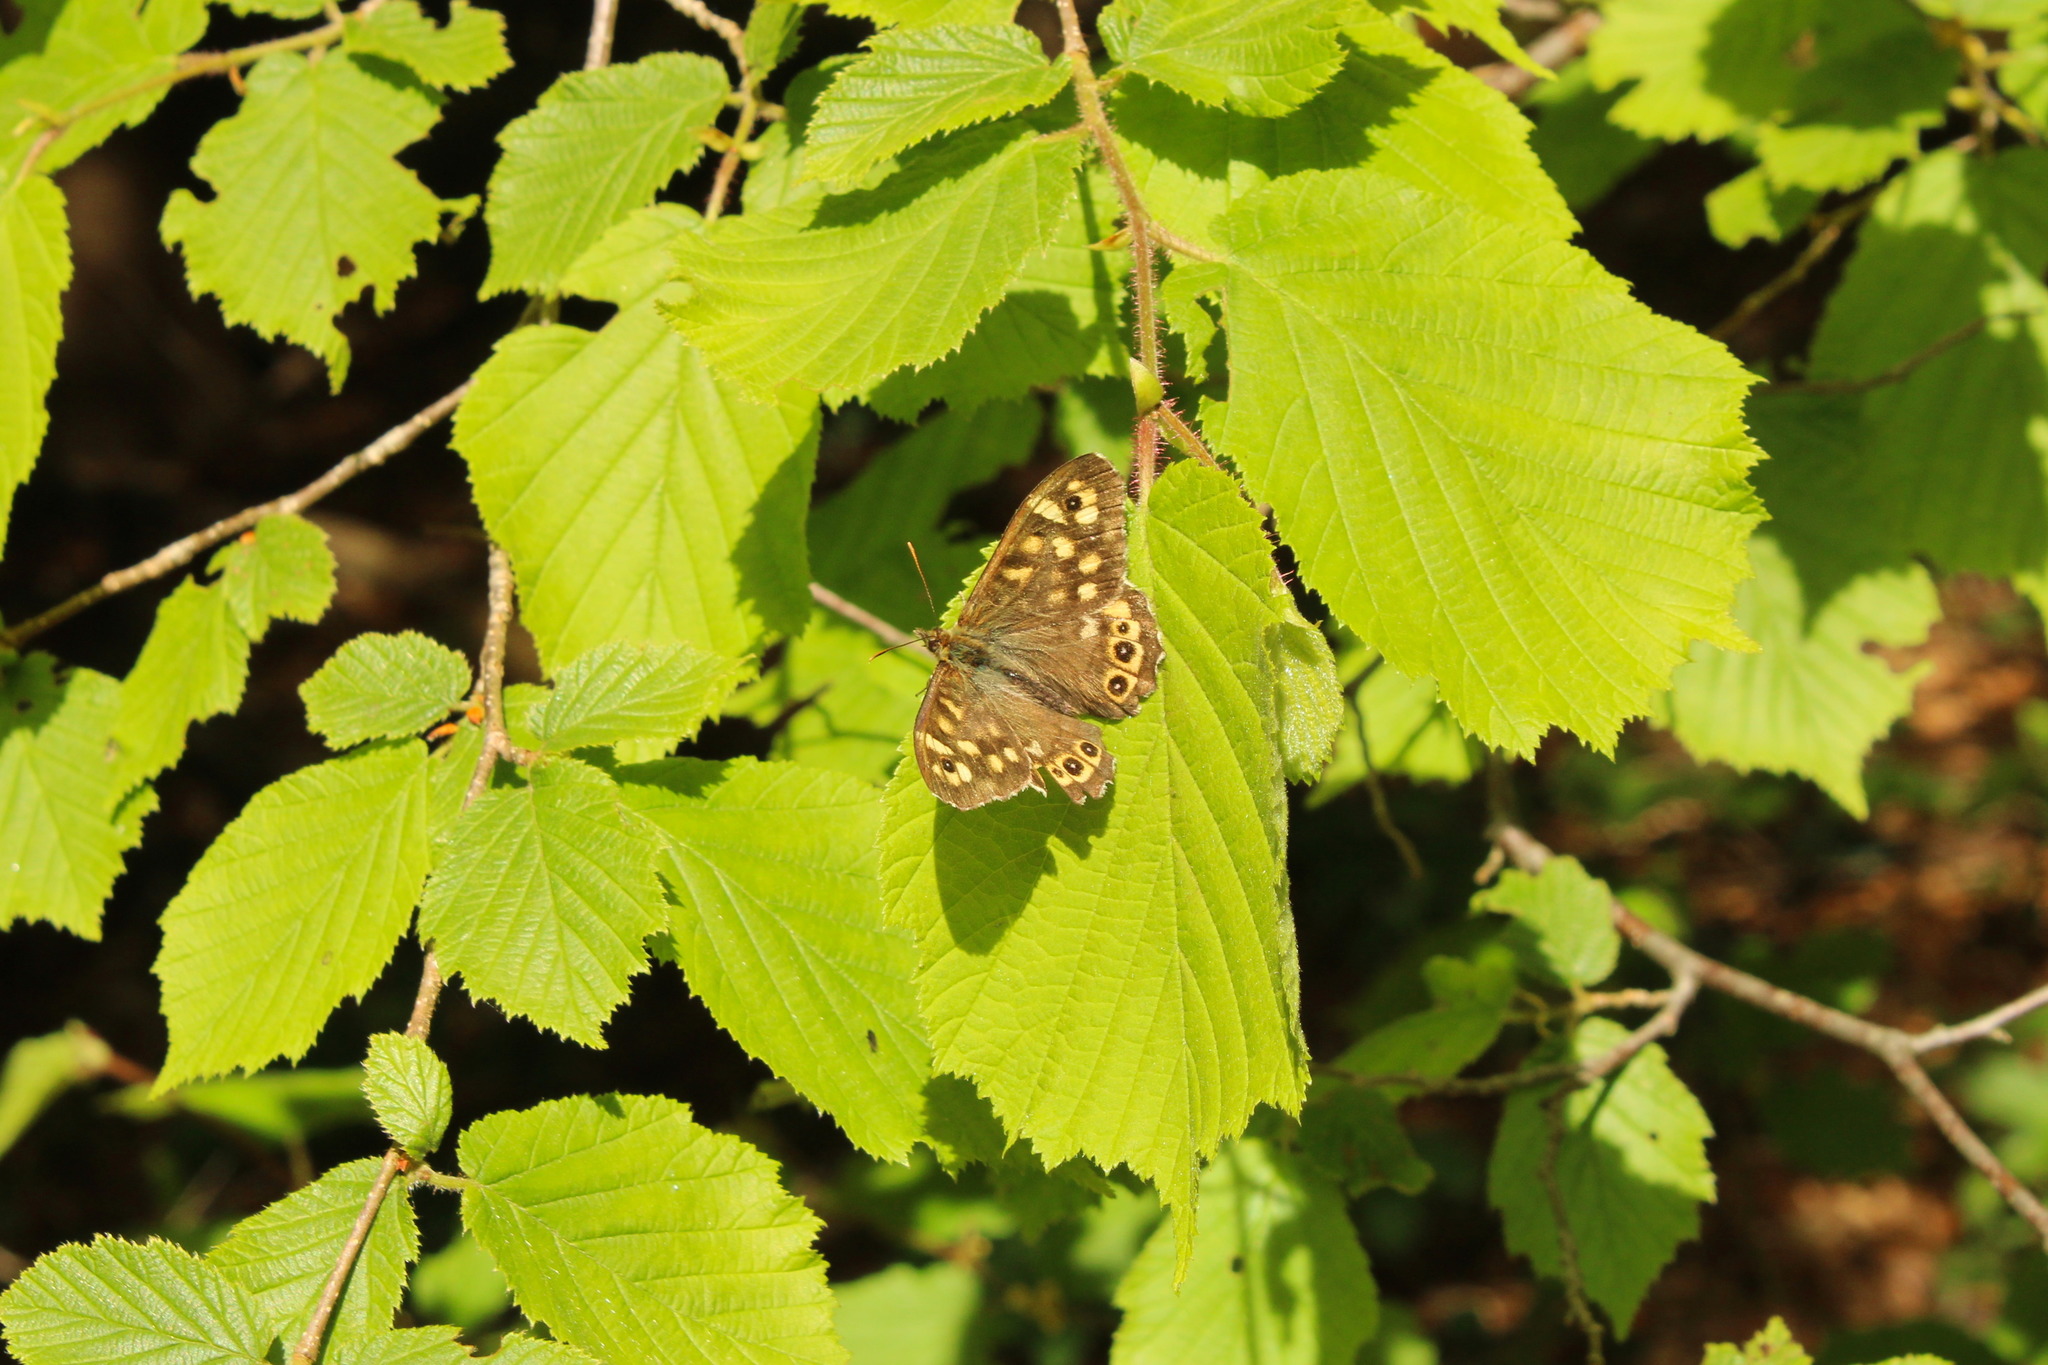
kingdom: Animalia
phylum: Arthropoda
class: Insecta
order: Lepidoptera
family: Nymphalidae
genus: Pararge
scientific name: Pararge aegeria
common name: Speckled wood
